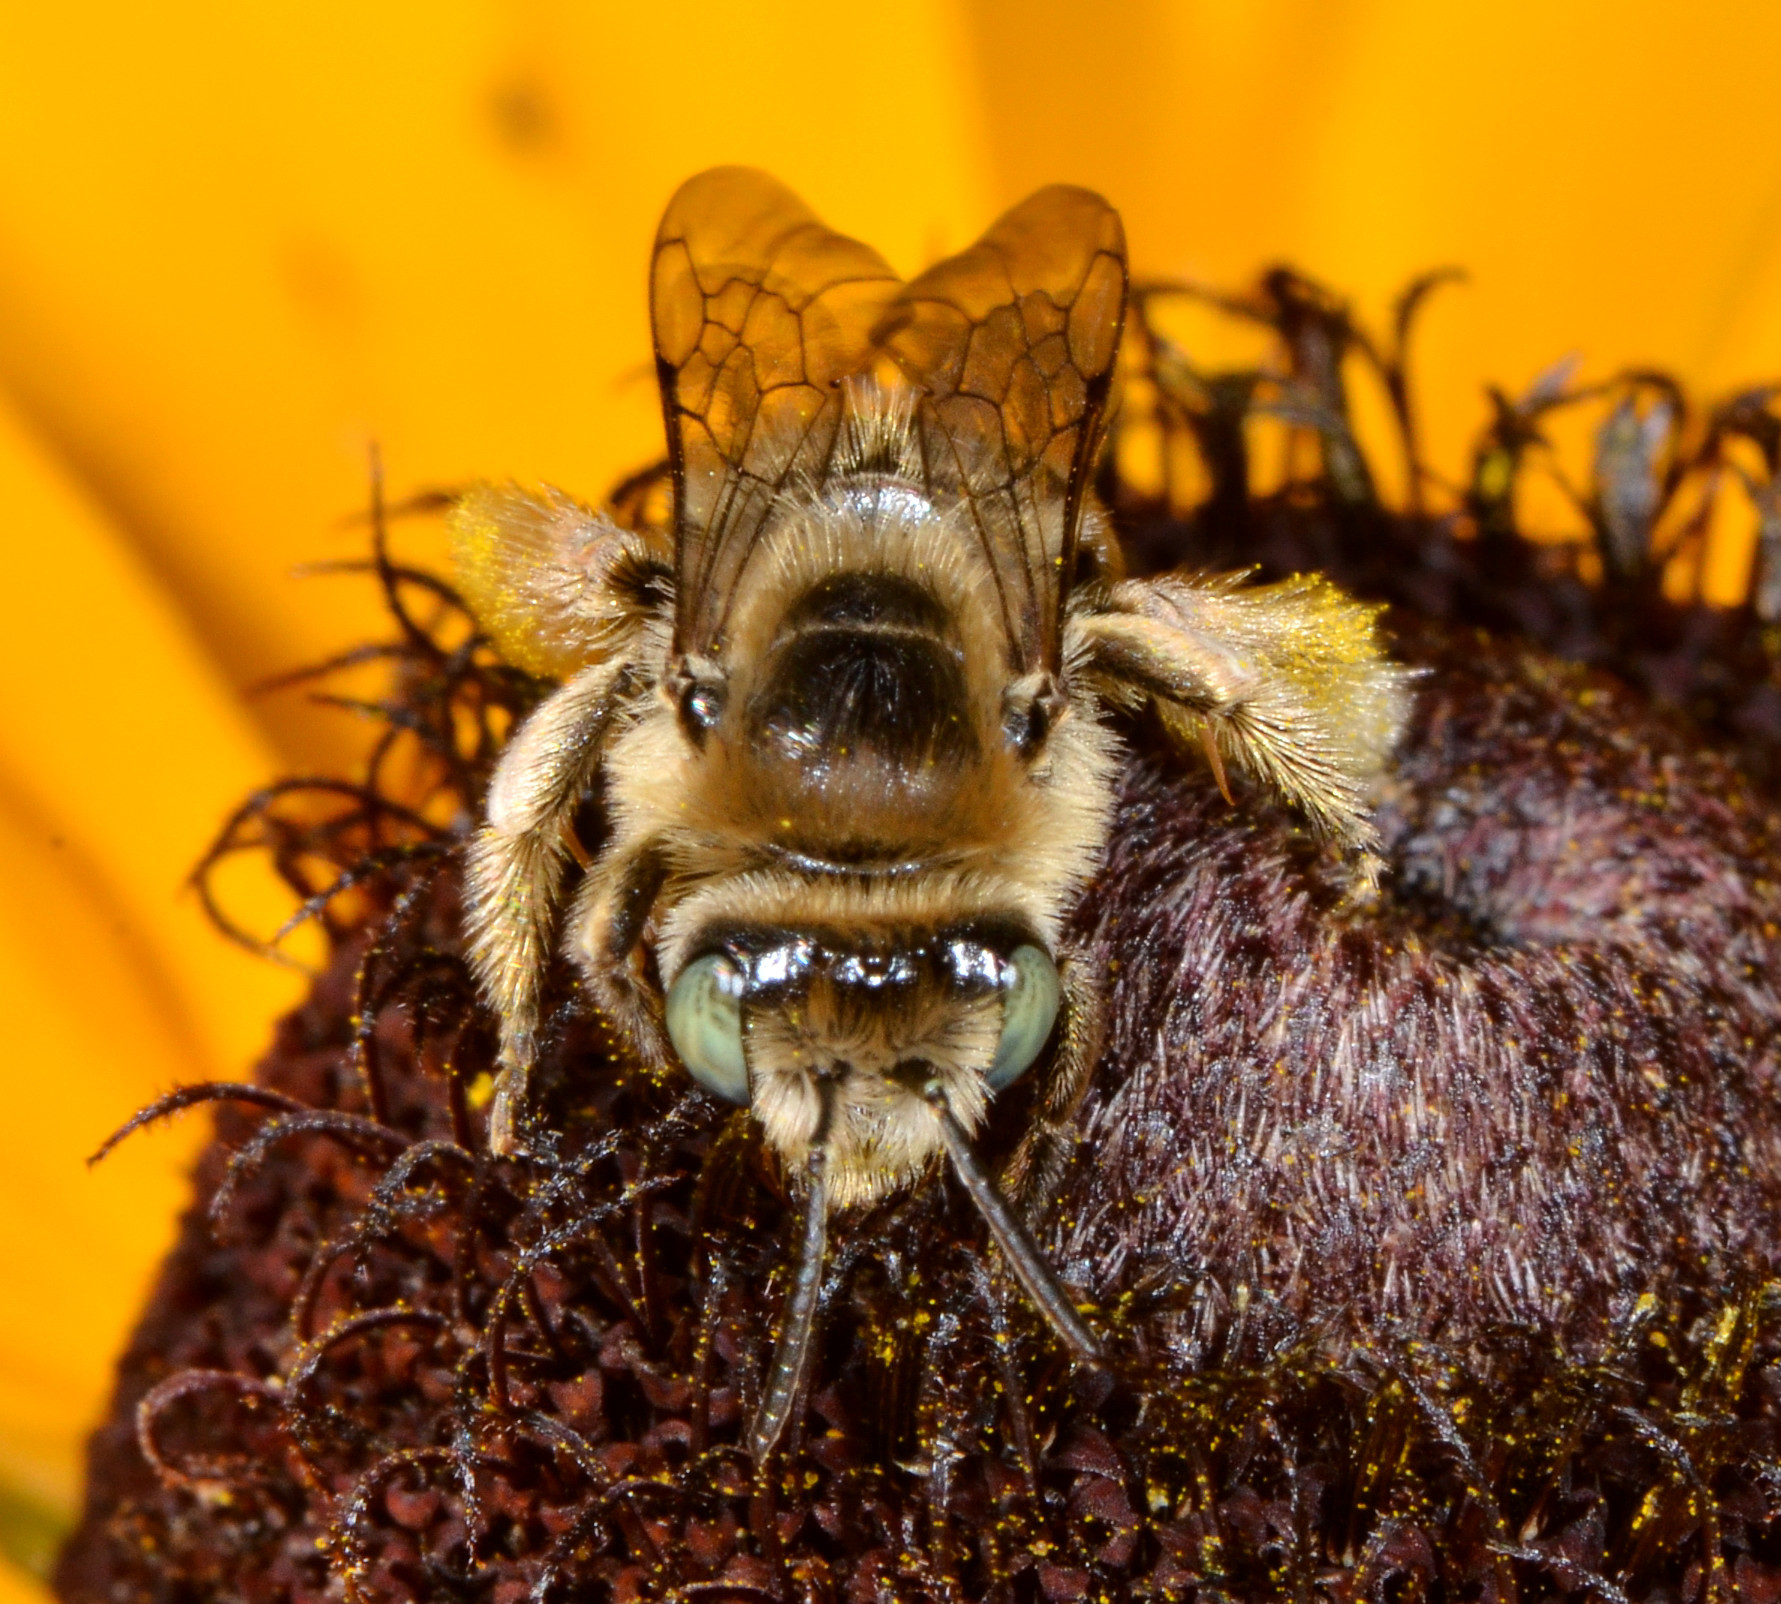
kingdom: Animalia
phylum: Arthropoda
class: Insecta
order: Hymenoptera
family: Apidae
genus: Melissodes
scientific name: Melissodes
